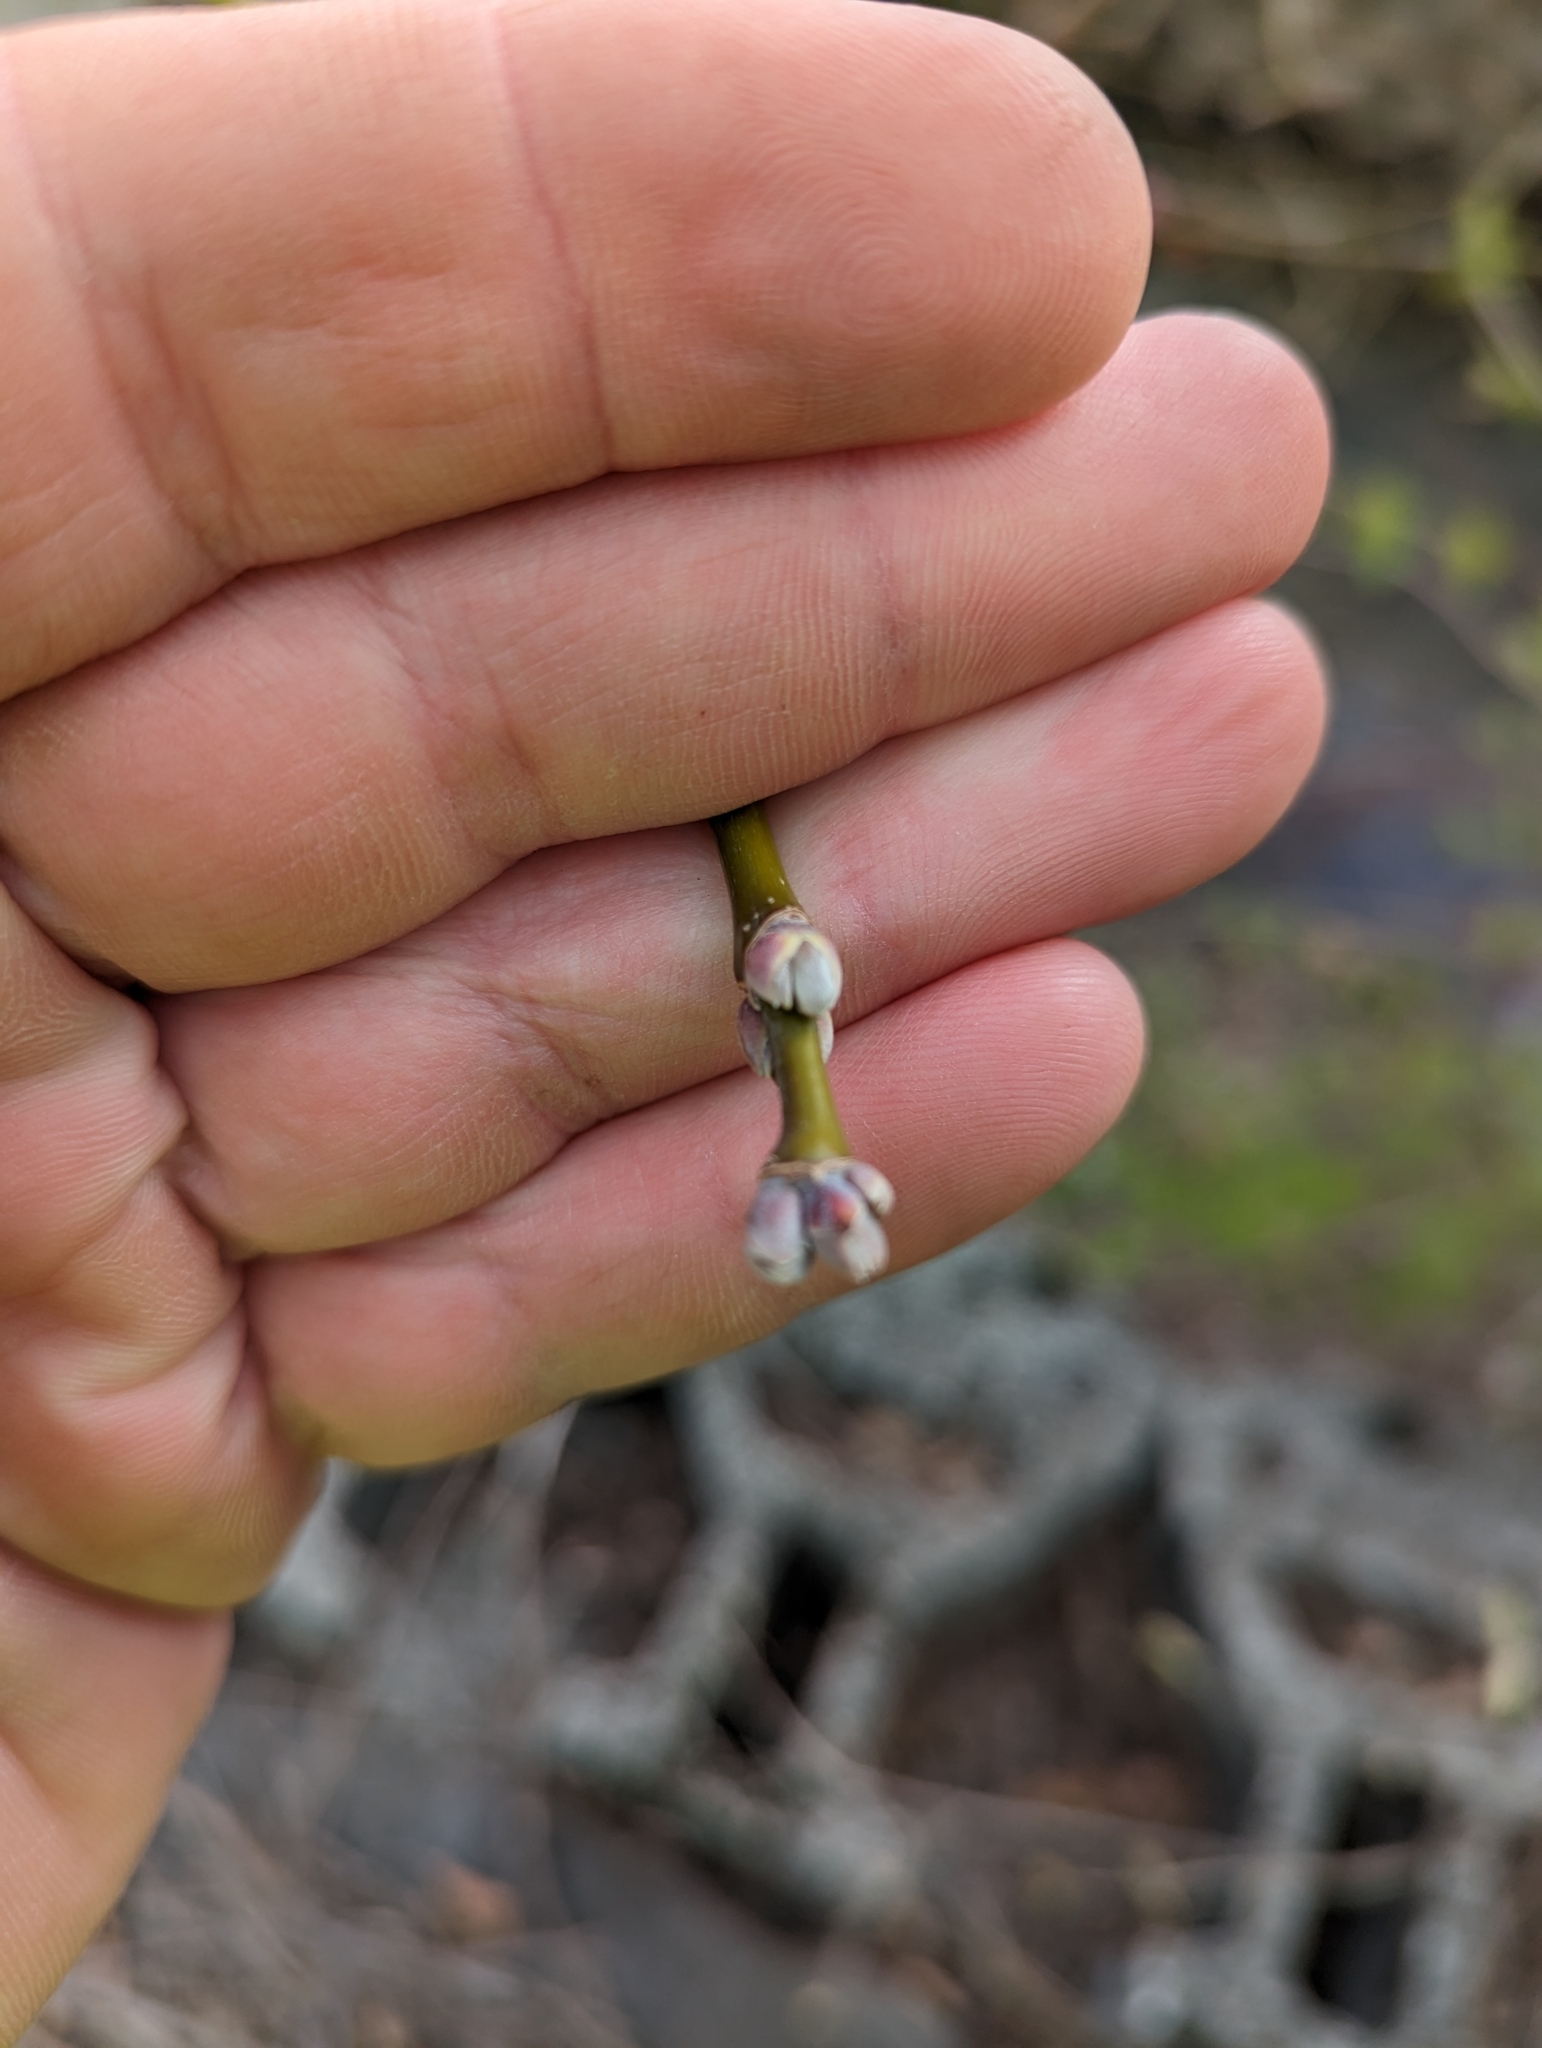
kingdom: Plantae
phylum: Tracheophyta
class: Magnoliopsida
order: Sapindales
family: Sapindaceae
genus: Acer
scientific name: Acer negundo
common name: Ashleaf maple
